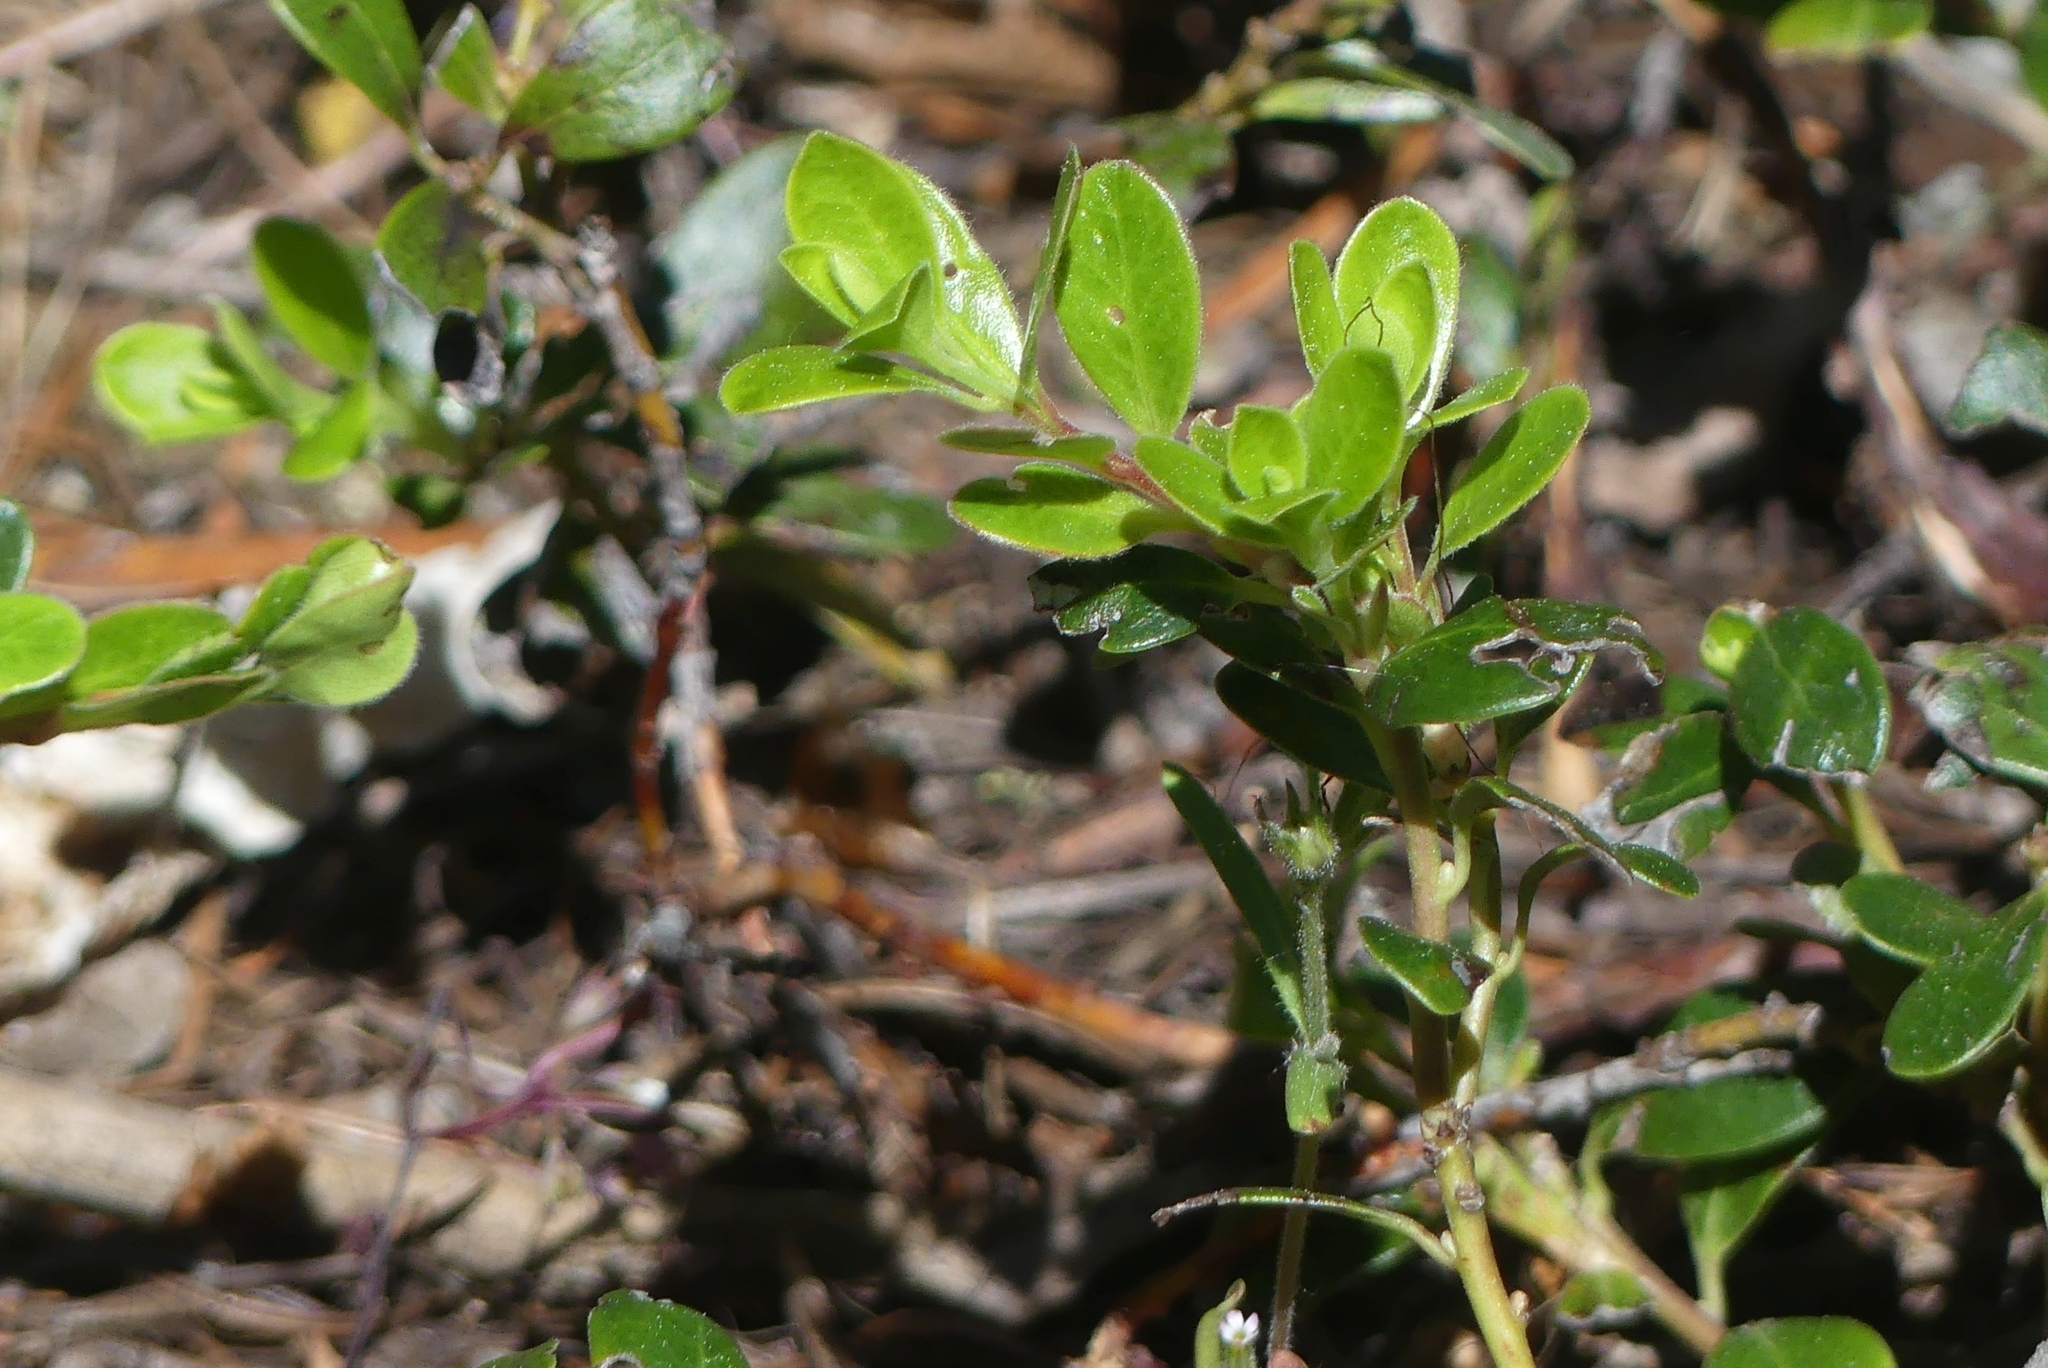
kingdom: Plantae
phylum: Tracheophyta
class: Magnoliopsida
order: Ericales
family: Ericaceae
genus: Arctostaphylos
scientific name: Arctostaphylos uva-ursi
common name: Bearberry
